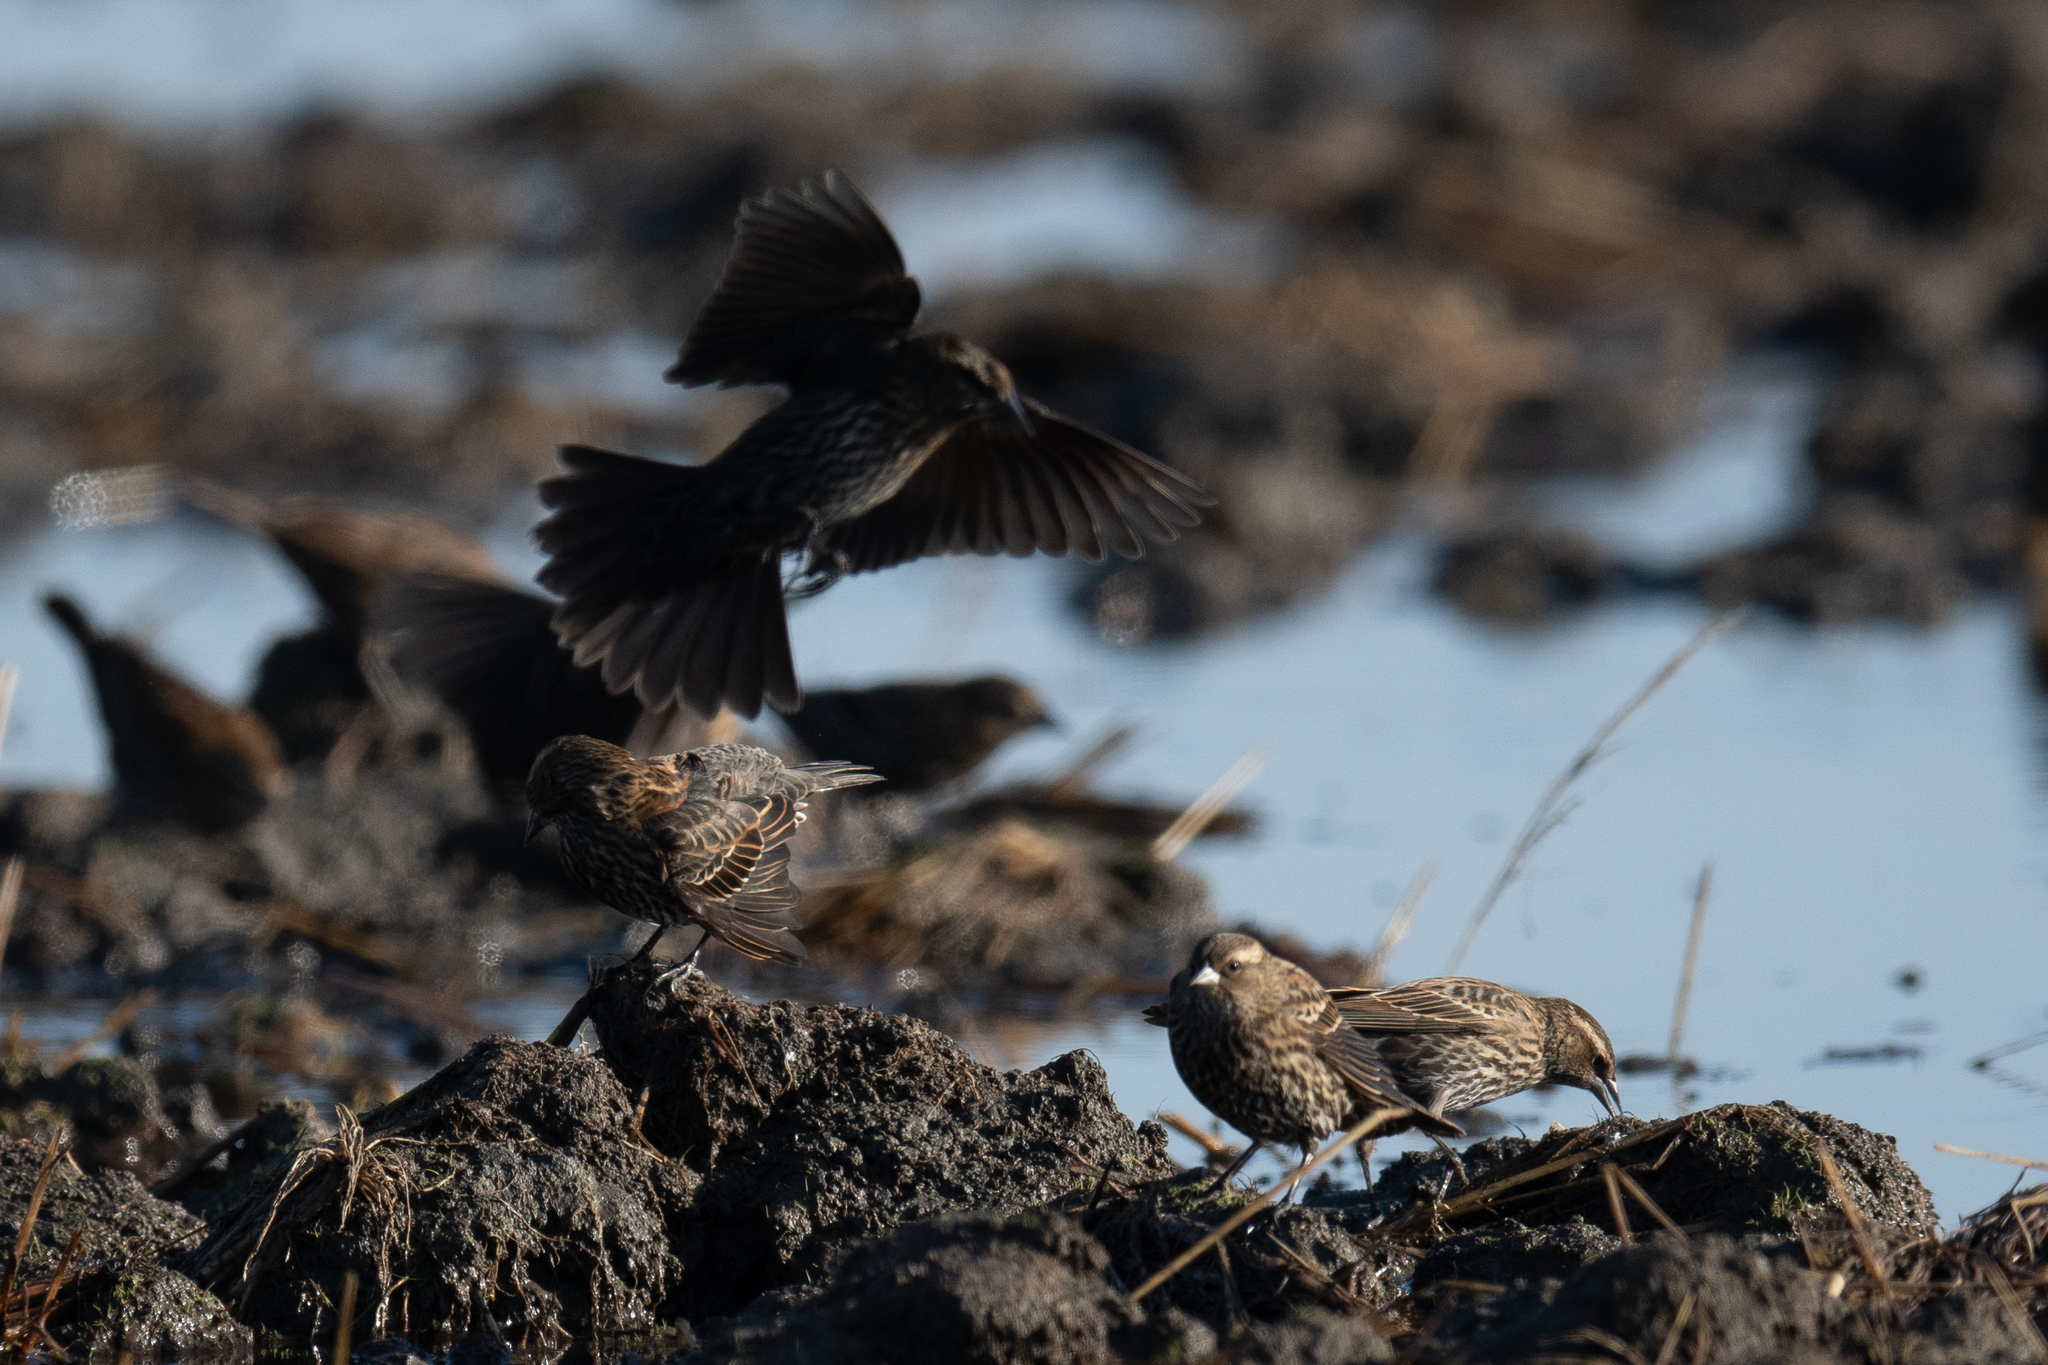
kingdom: Animalia
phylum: Chordata
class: Aves
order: Passeriformes
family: Icteridae
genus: Agelaius
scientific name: Agelaius phoeniceus
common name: Red-winged blackbird
